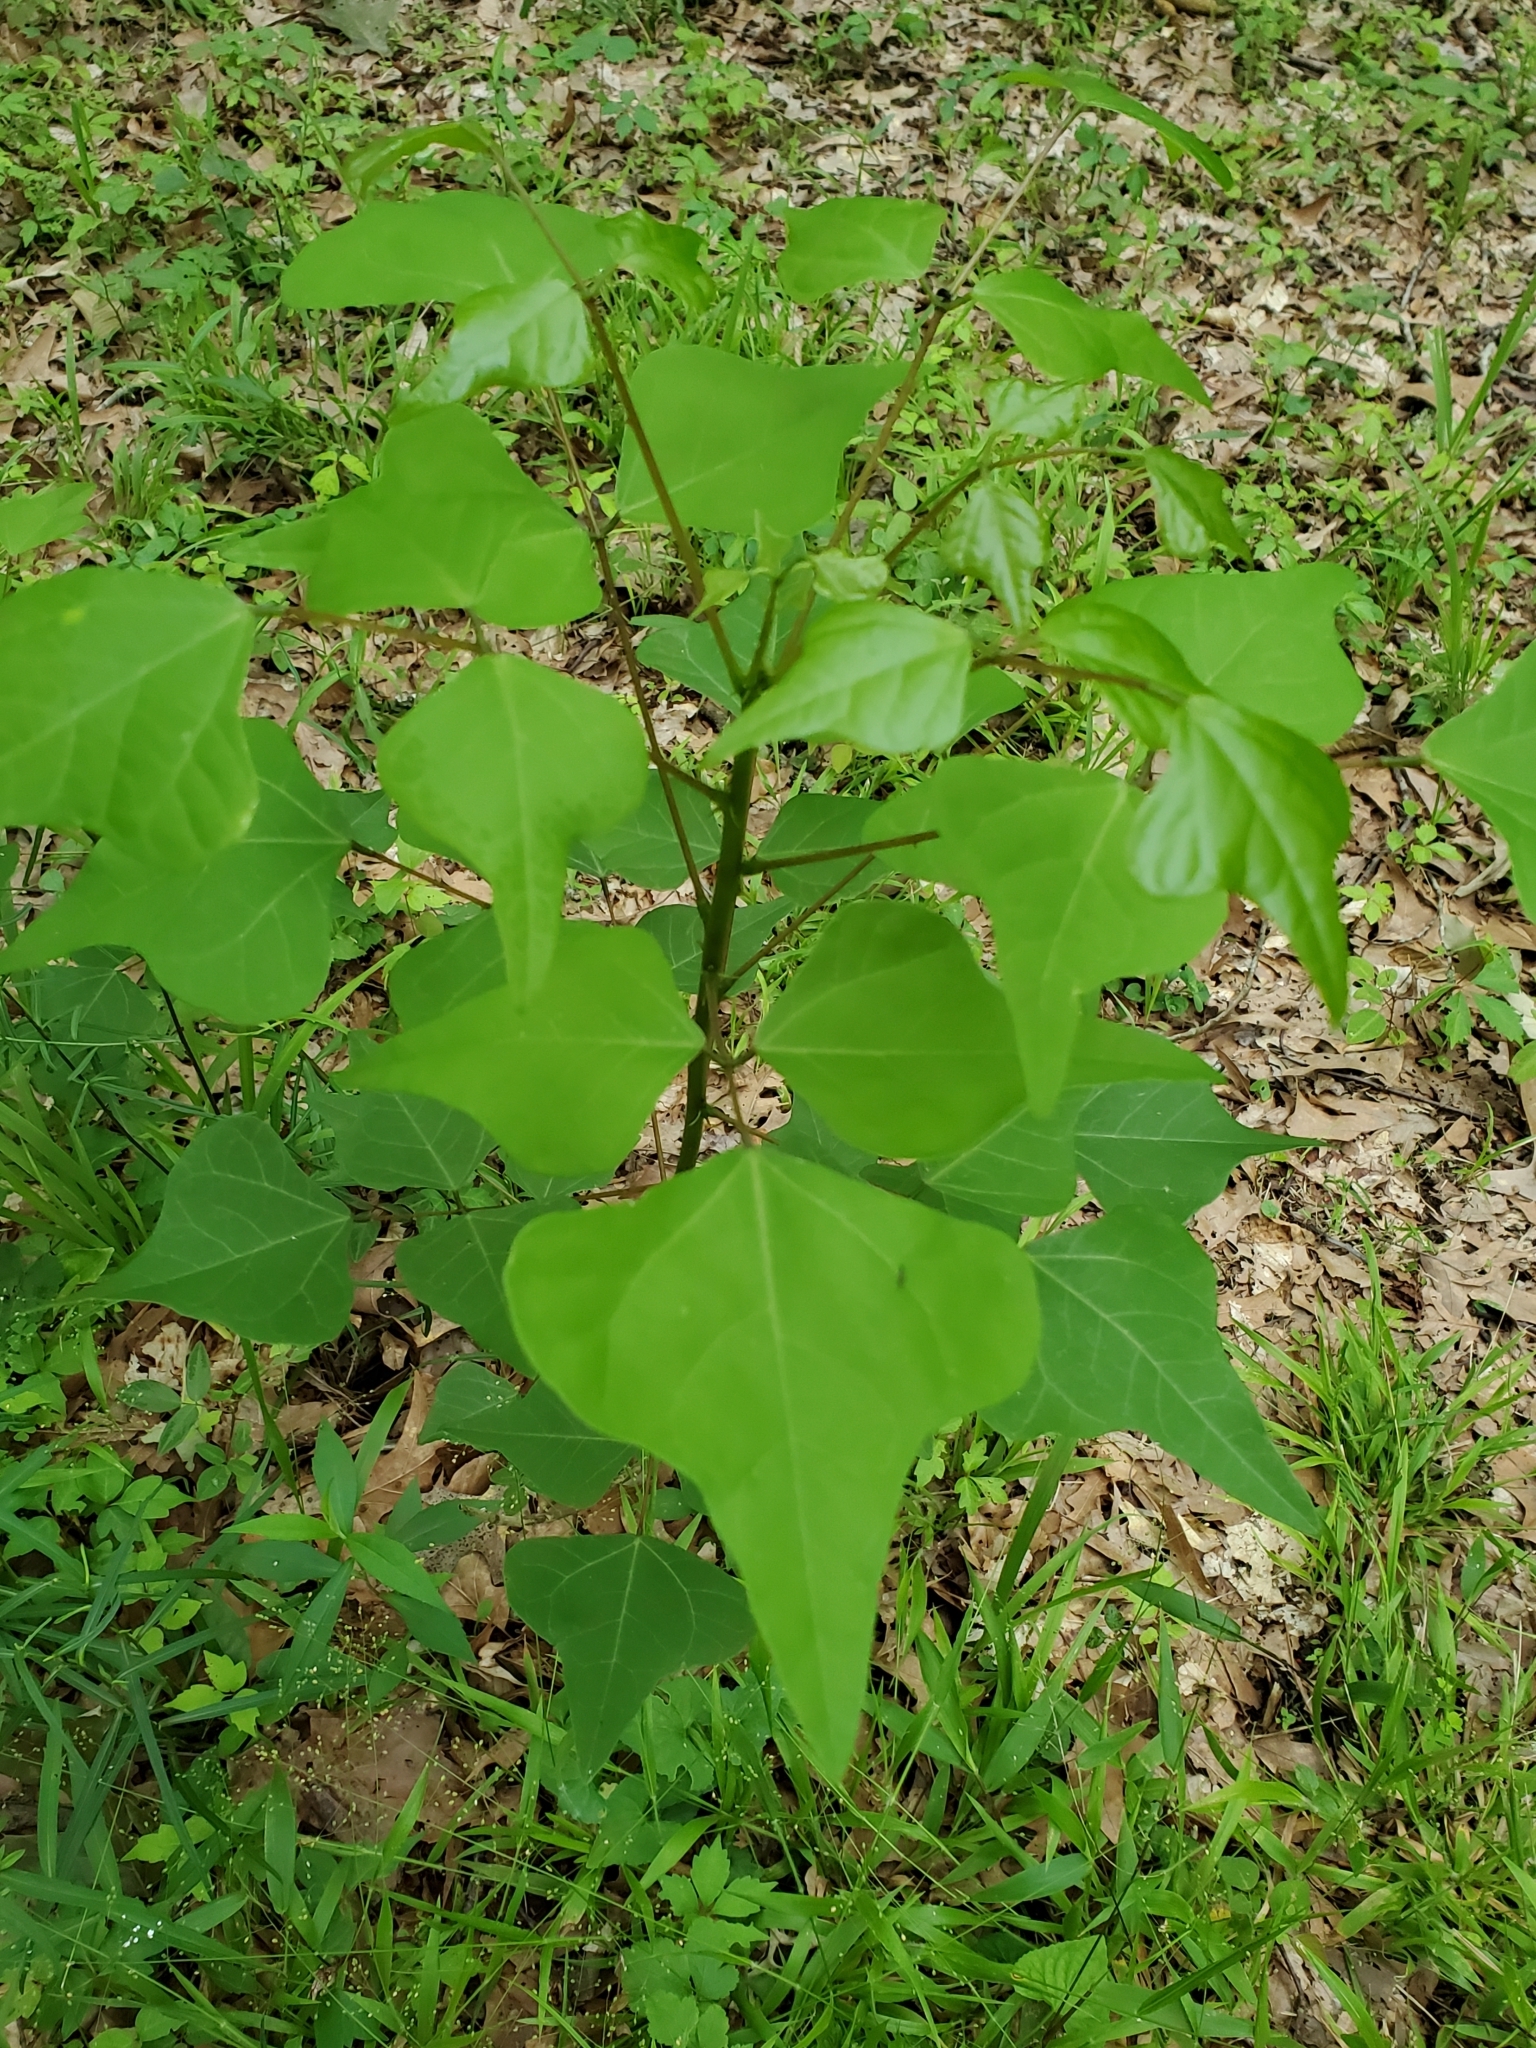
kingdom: Plantae
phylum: Tracheophyta
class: Magnoliopsida
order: Fabales
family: Fabaceae
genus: Erythrina
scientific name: Erythrina herbacea
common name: Coral-bean
